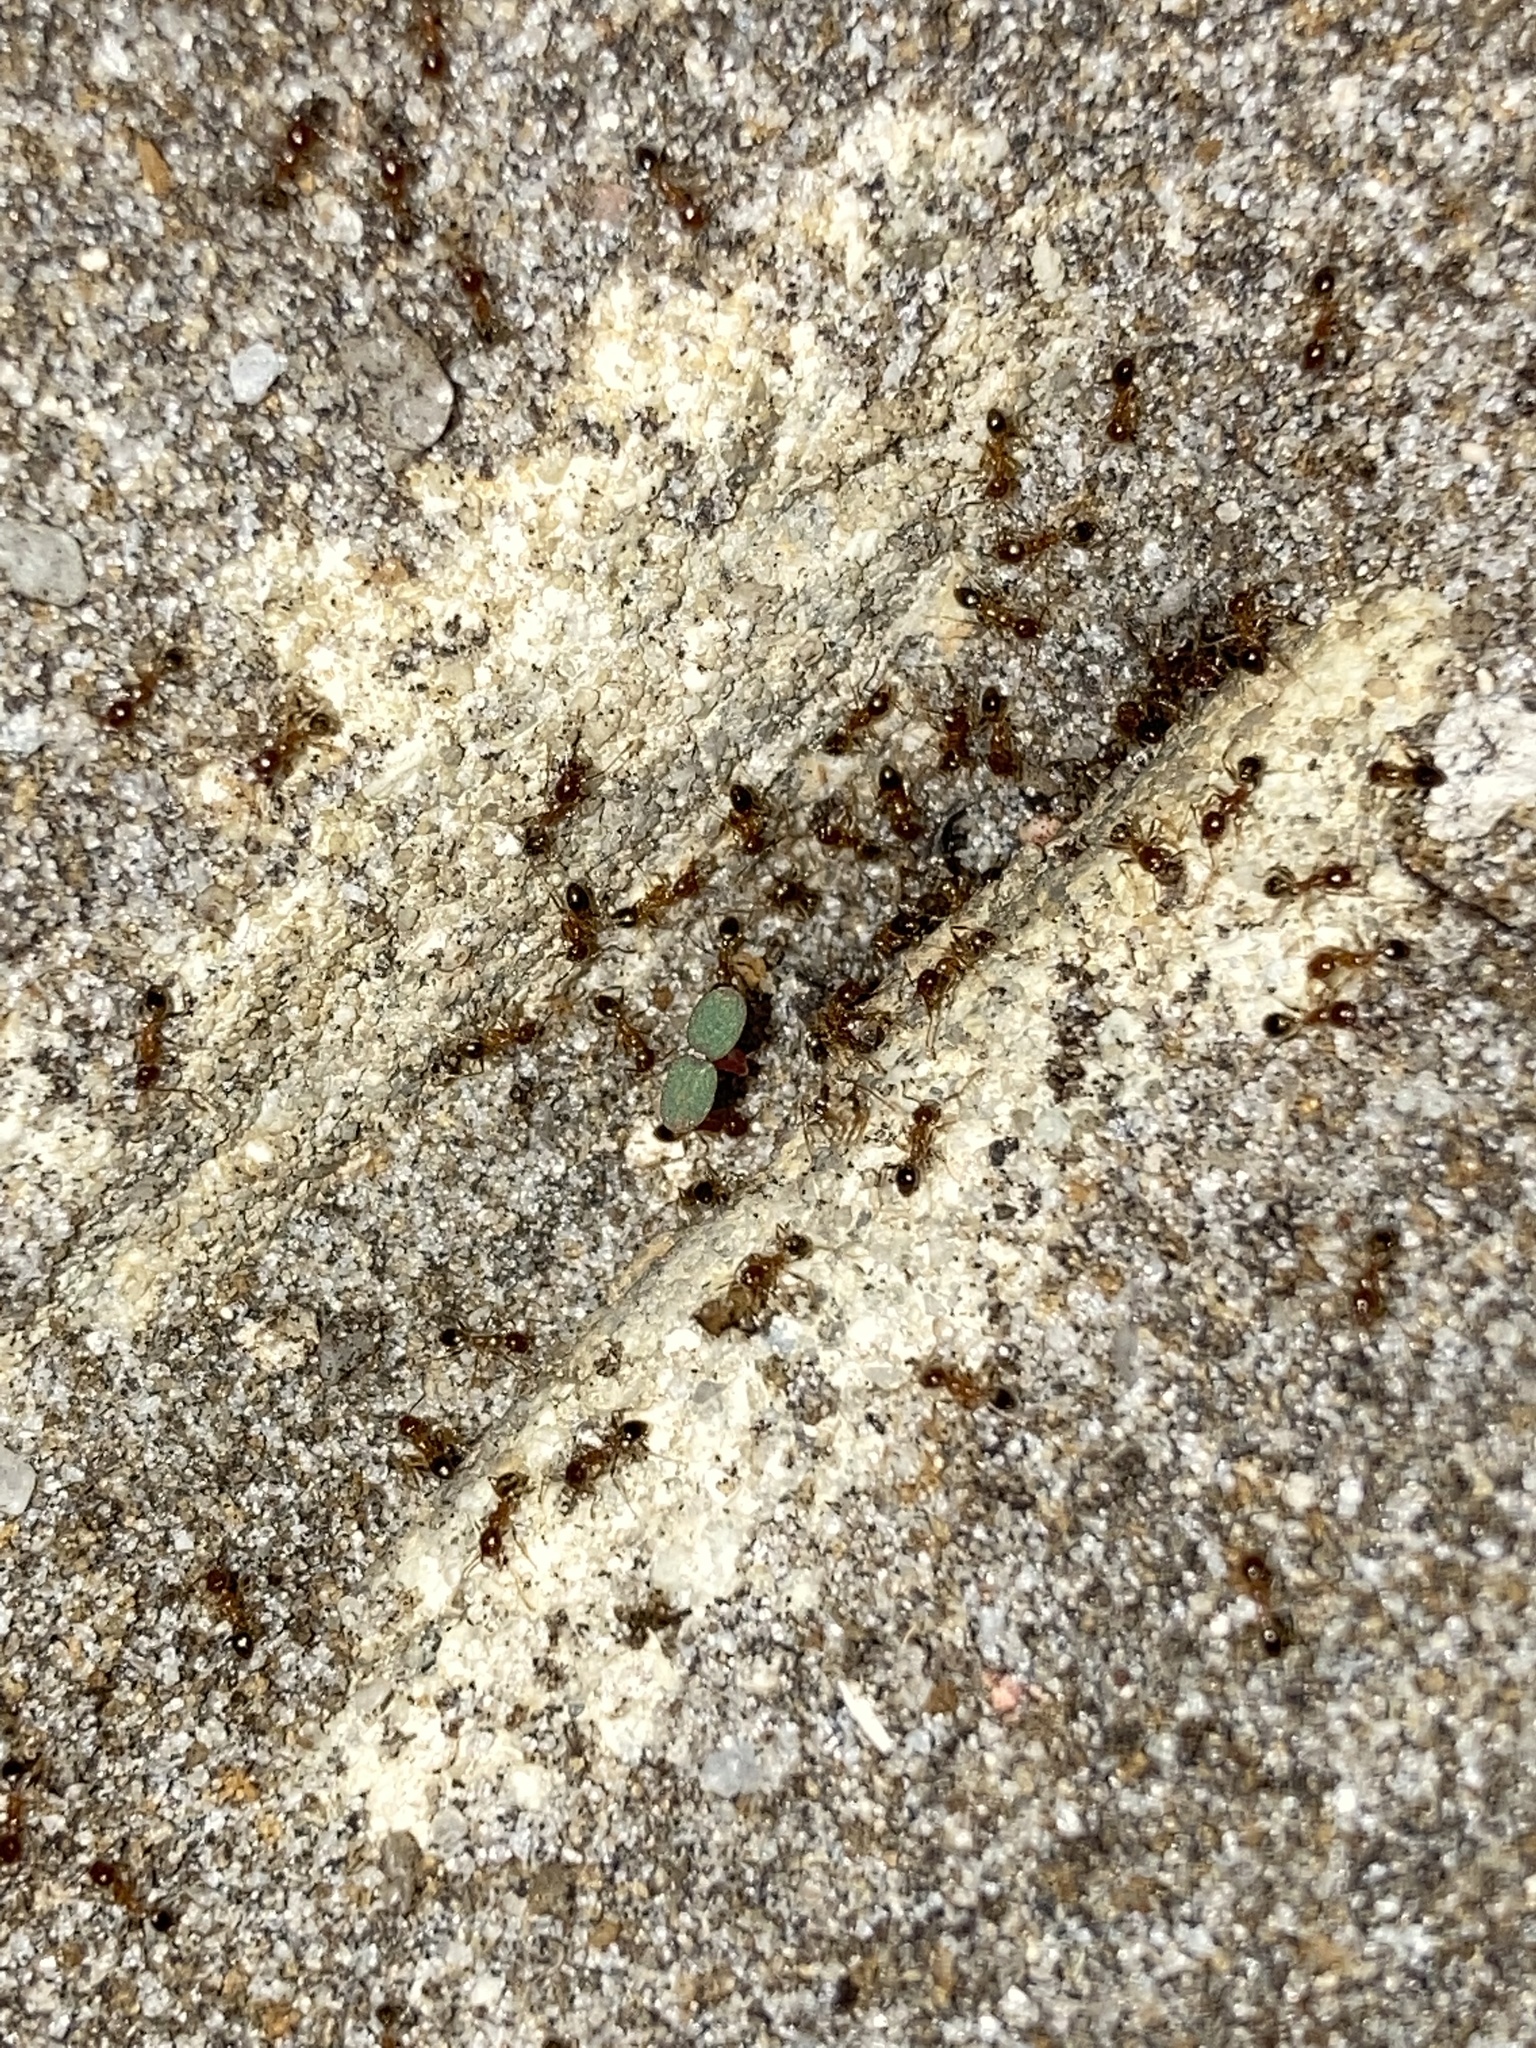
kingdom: Animalia
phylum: Arthropoda
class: Insecta
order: Hymenoptera
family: Formicidae
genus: Pheidole
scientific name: Pheidole megacephala
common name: Bigheaded ant
